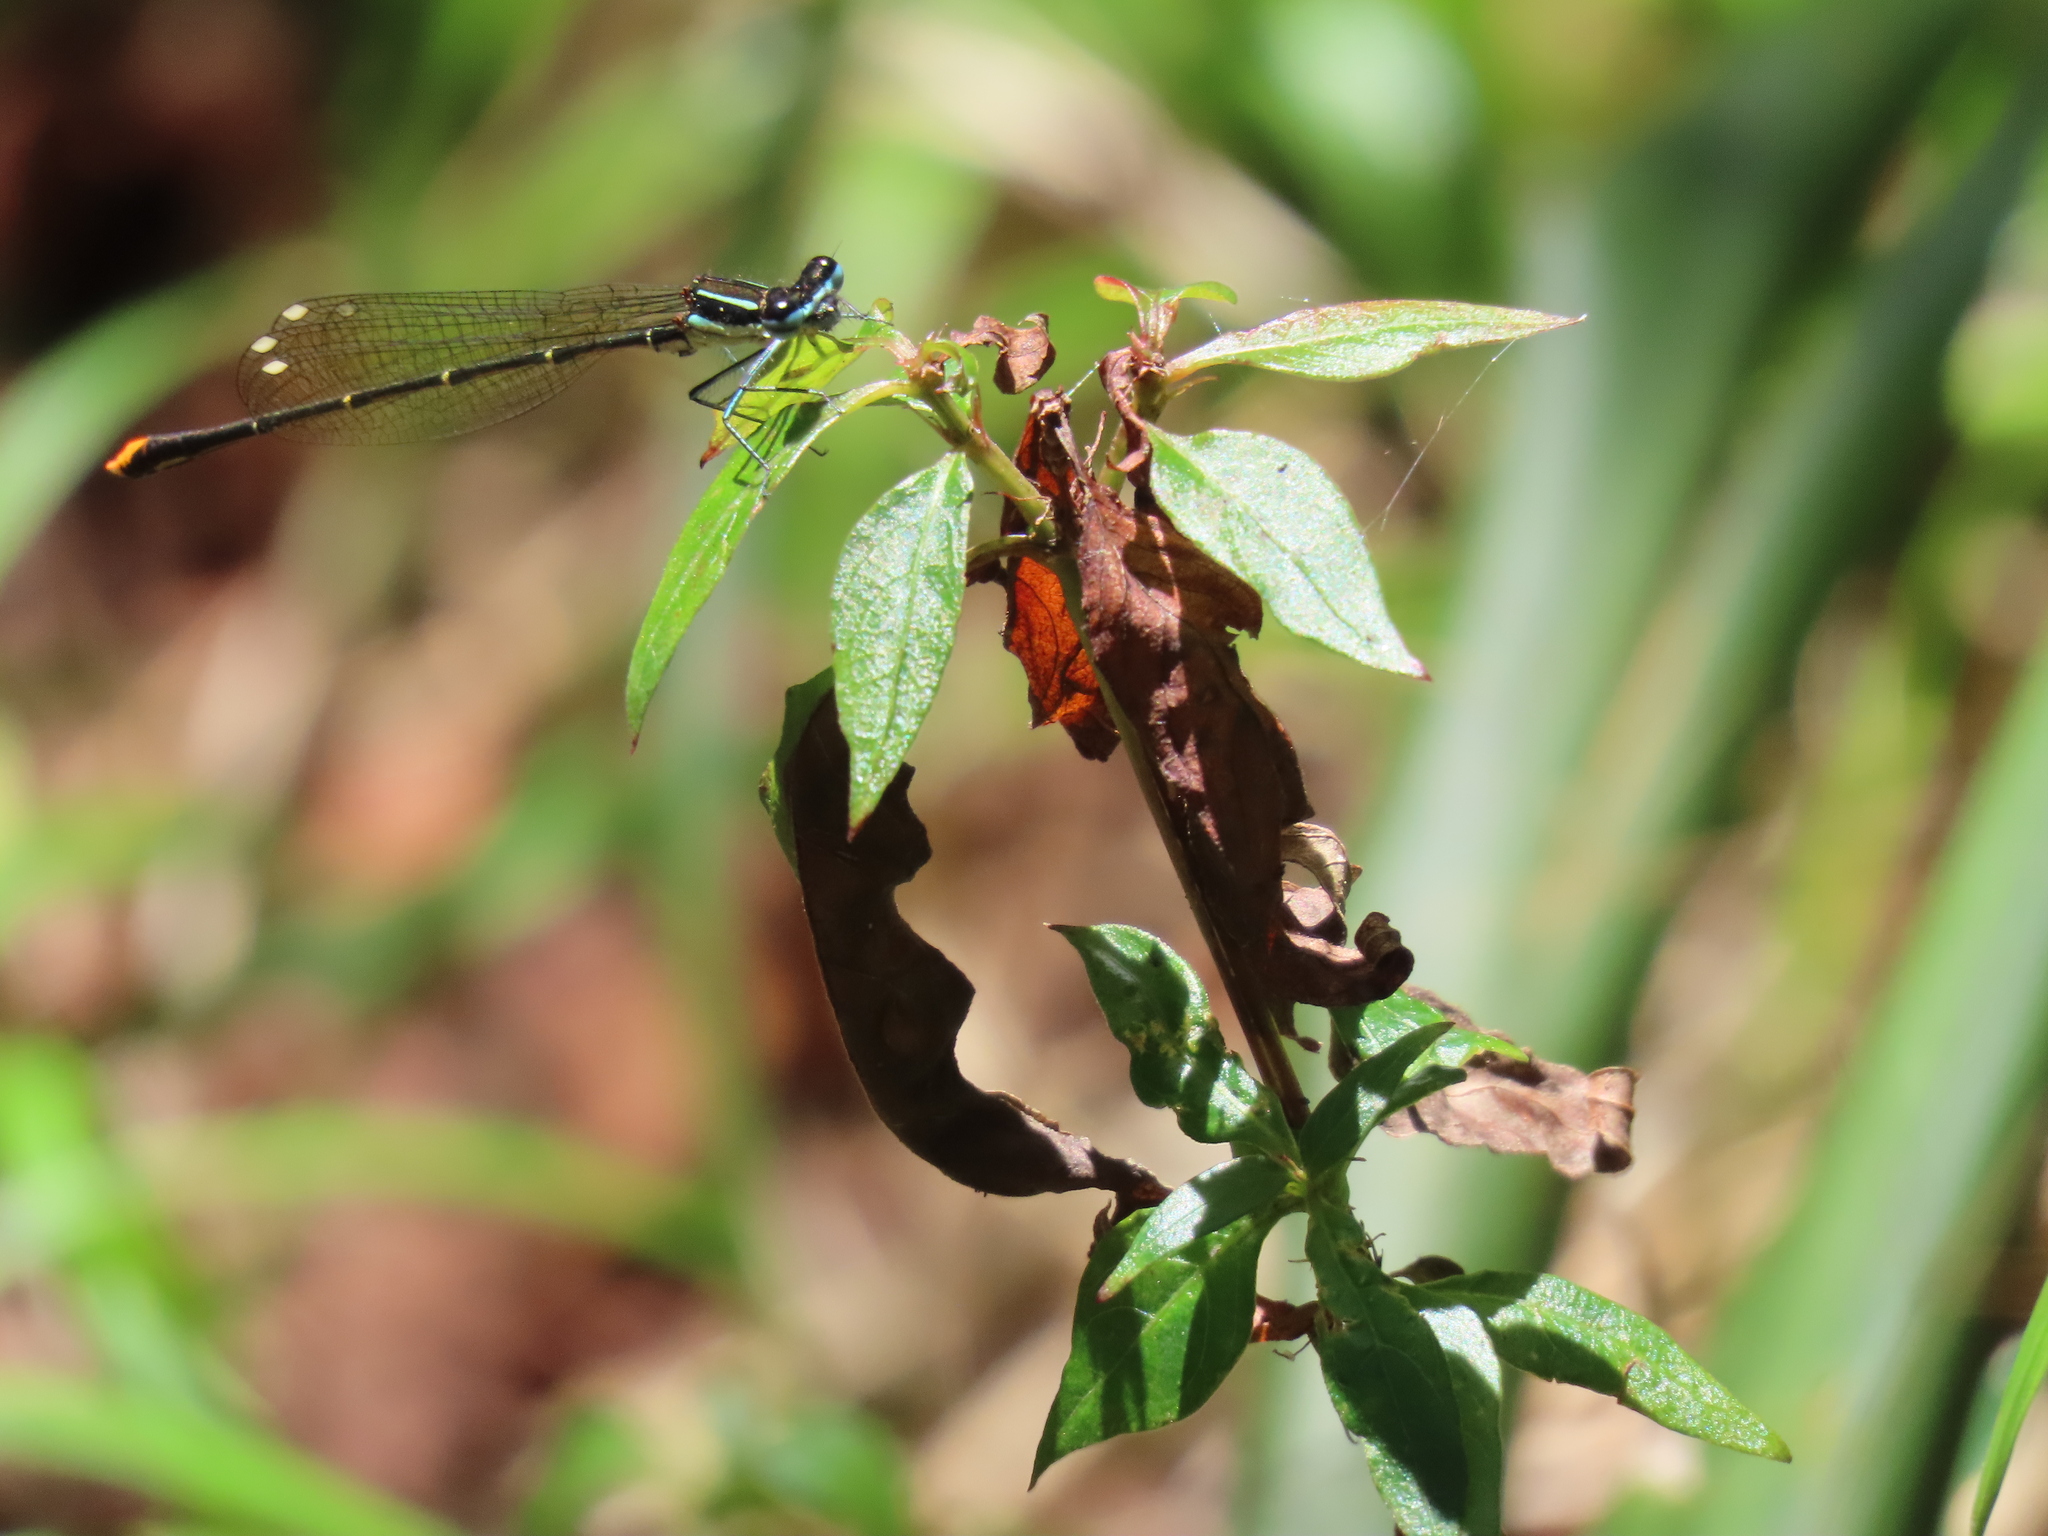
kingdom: Animalia
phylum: Arthropoda
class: Insecta
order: Odonata
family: Platycnemididae
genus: Allocnemis
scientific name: Allocnemis leucosticta
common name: Goldtail
